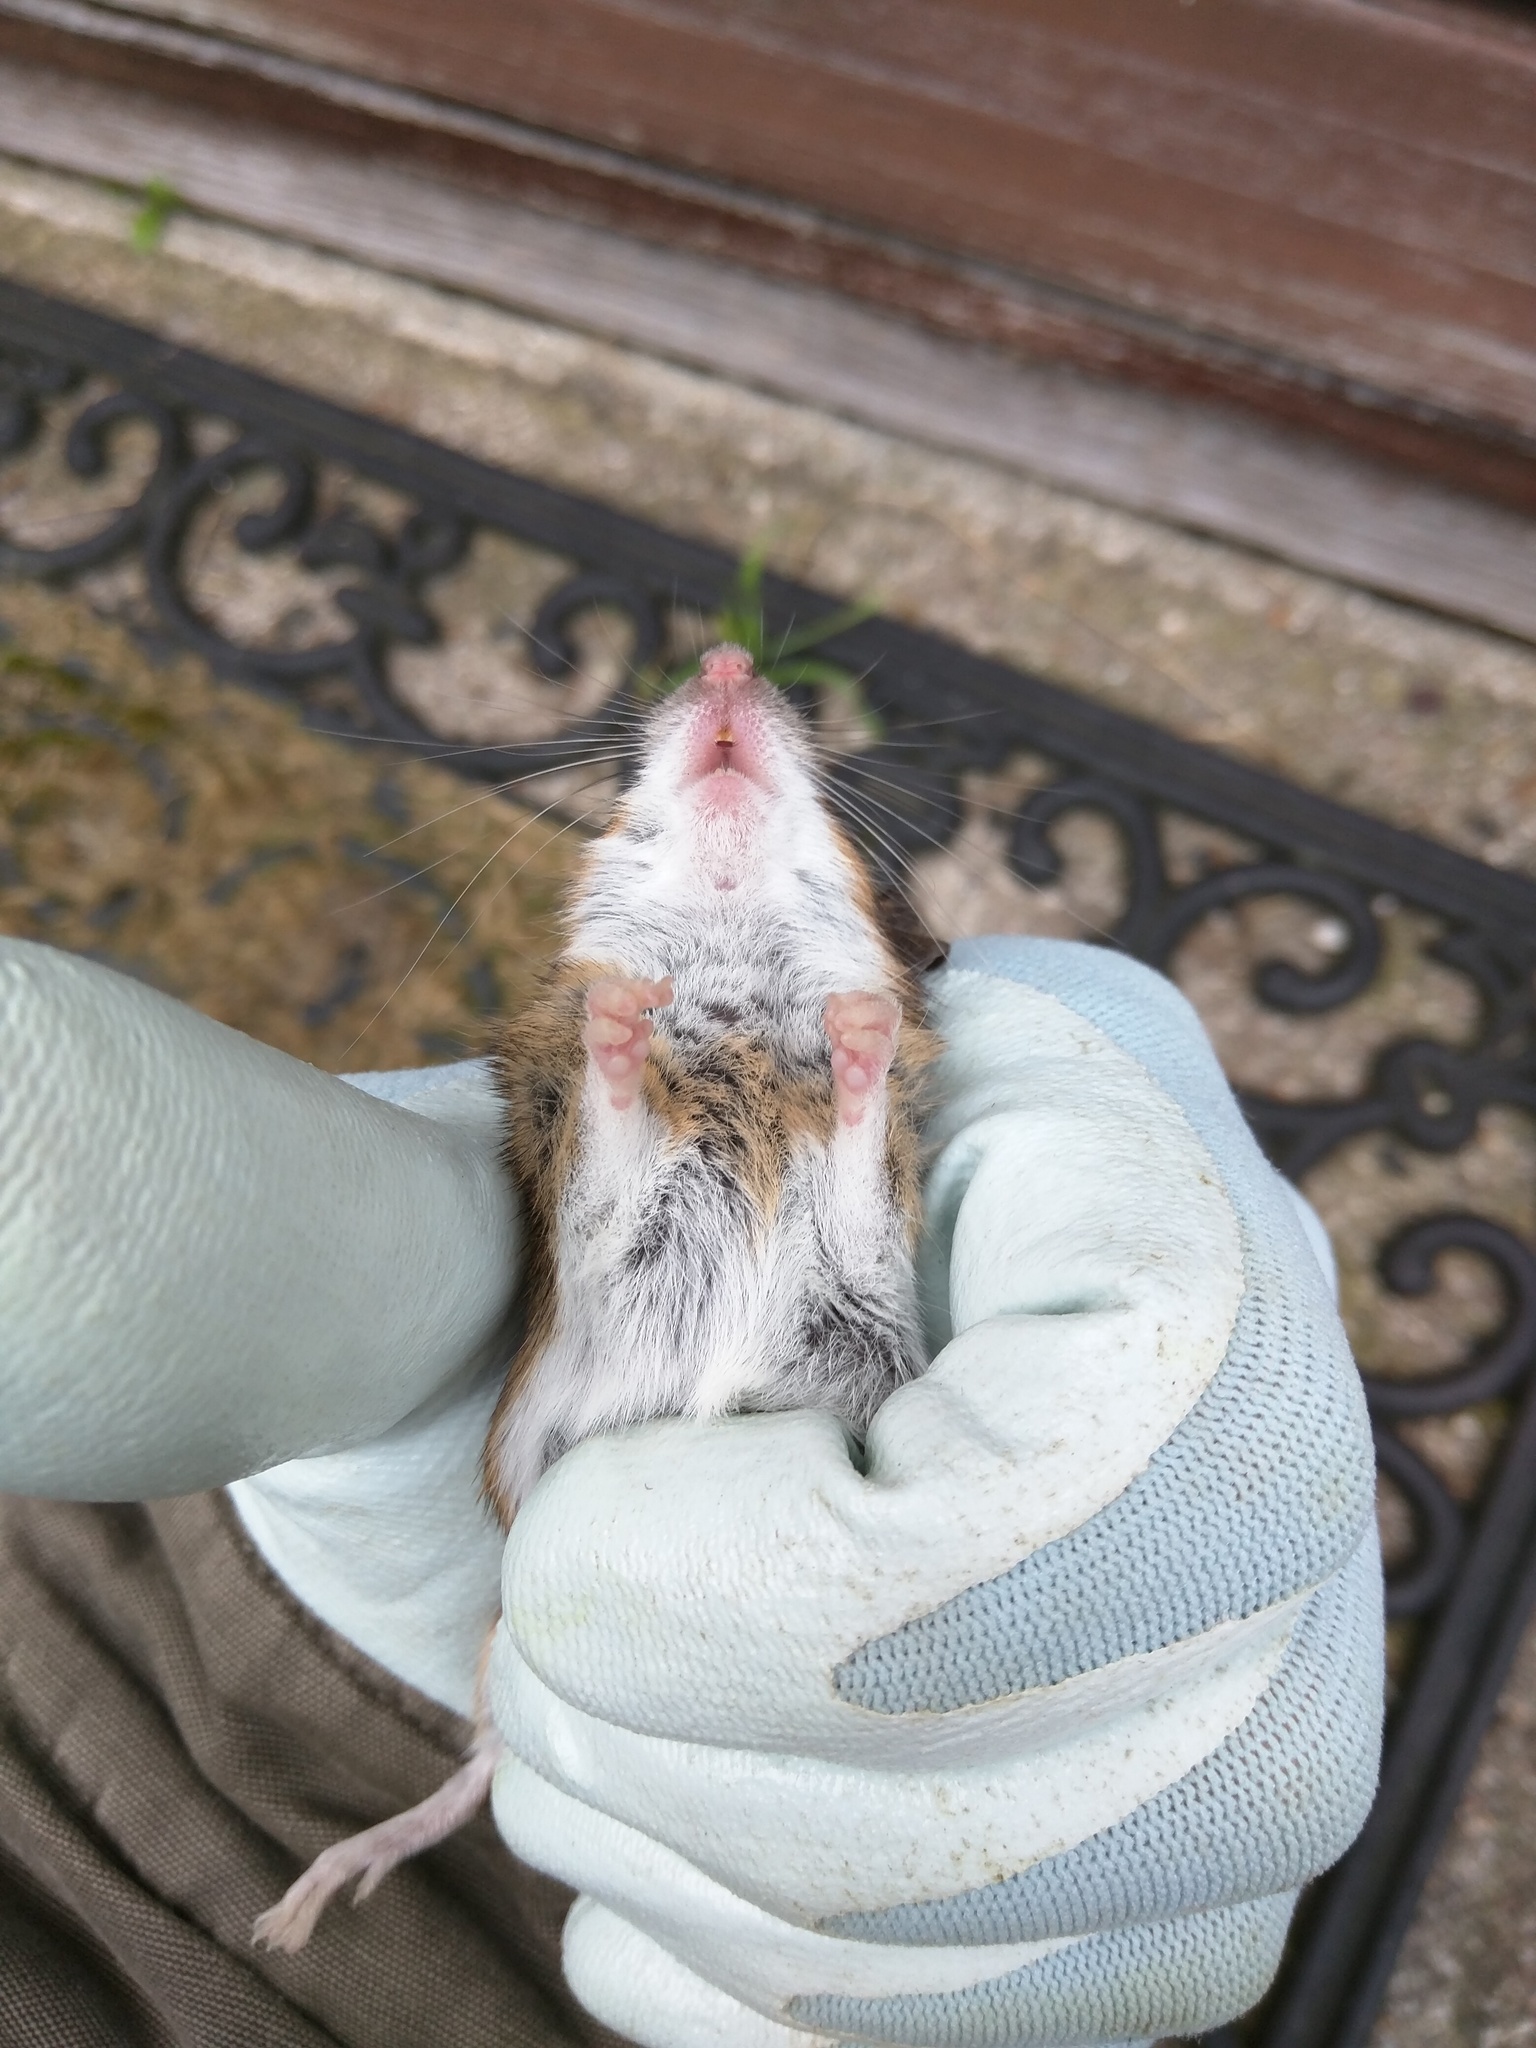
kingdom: Animalia
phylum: Chordata
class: Mammalia
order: Rodentia
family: Muridae
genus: Apodemus
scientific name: Apodemus flavicollis
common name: Yellow-necked field mouse
